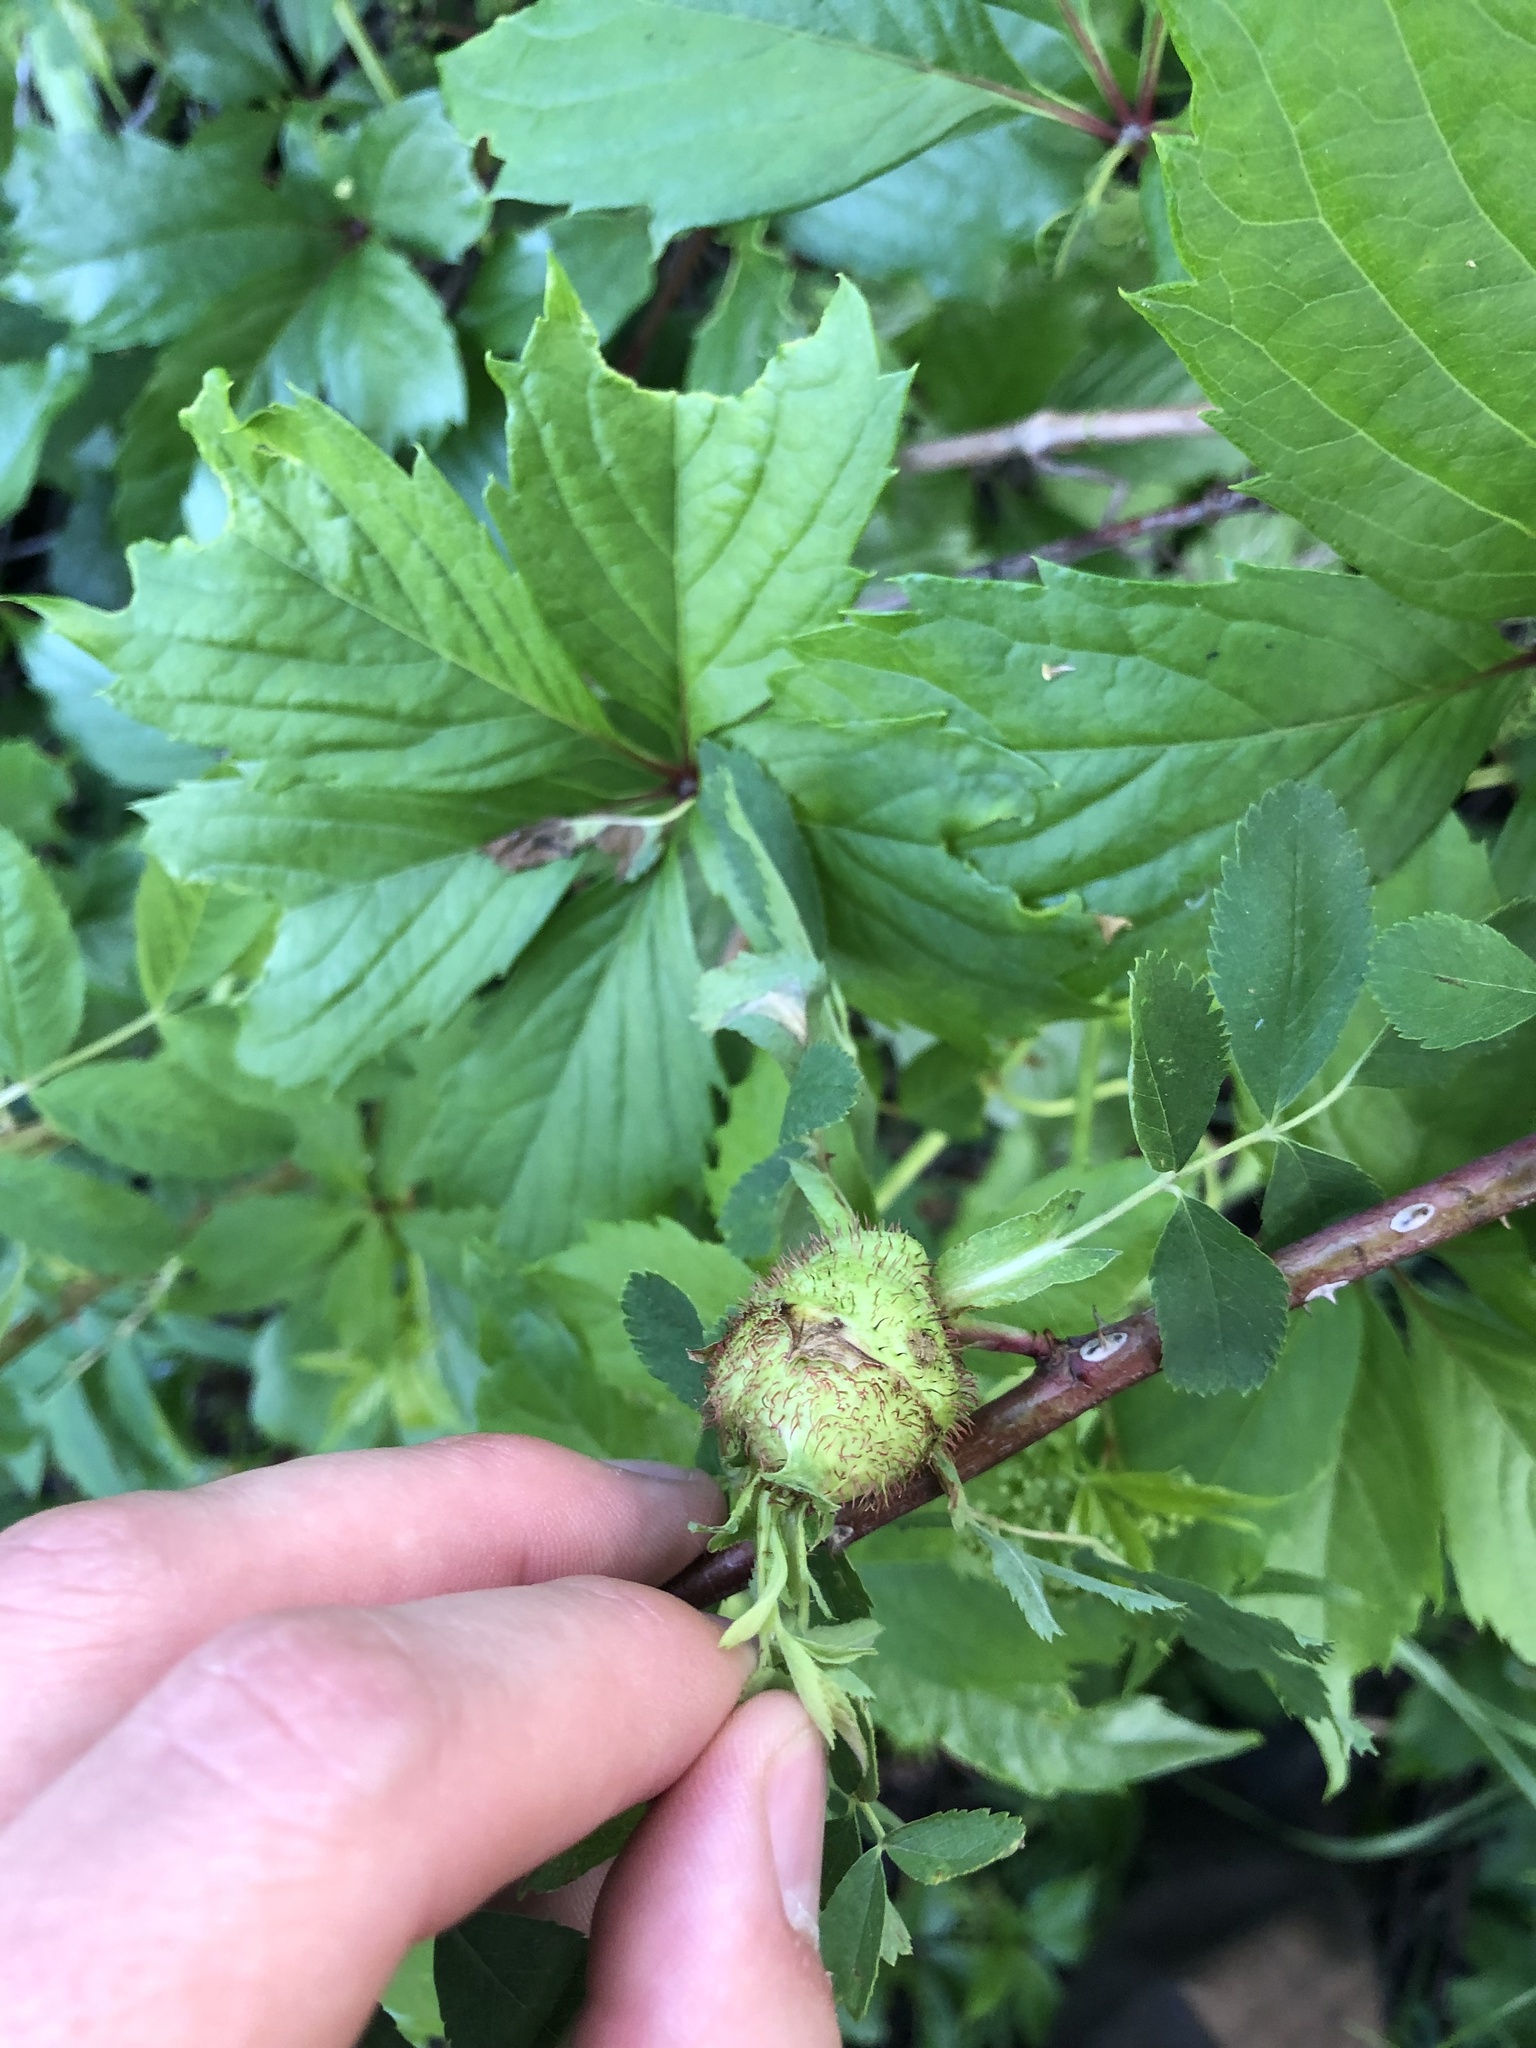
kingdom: Animalia
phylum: Arthropoda
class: Insecta
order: Hymenoptera
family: Cynipidae
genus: Diplolepis
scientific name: Diplolepis spinosa
